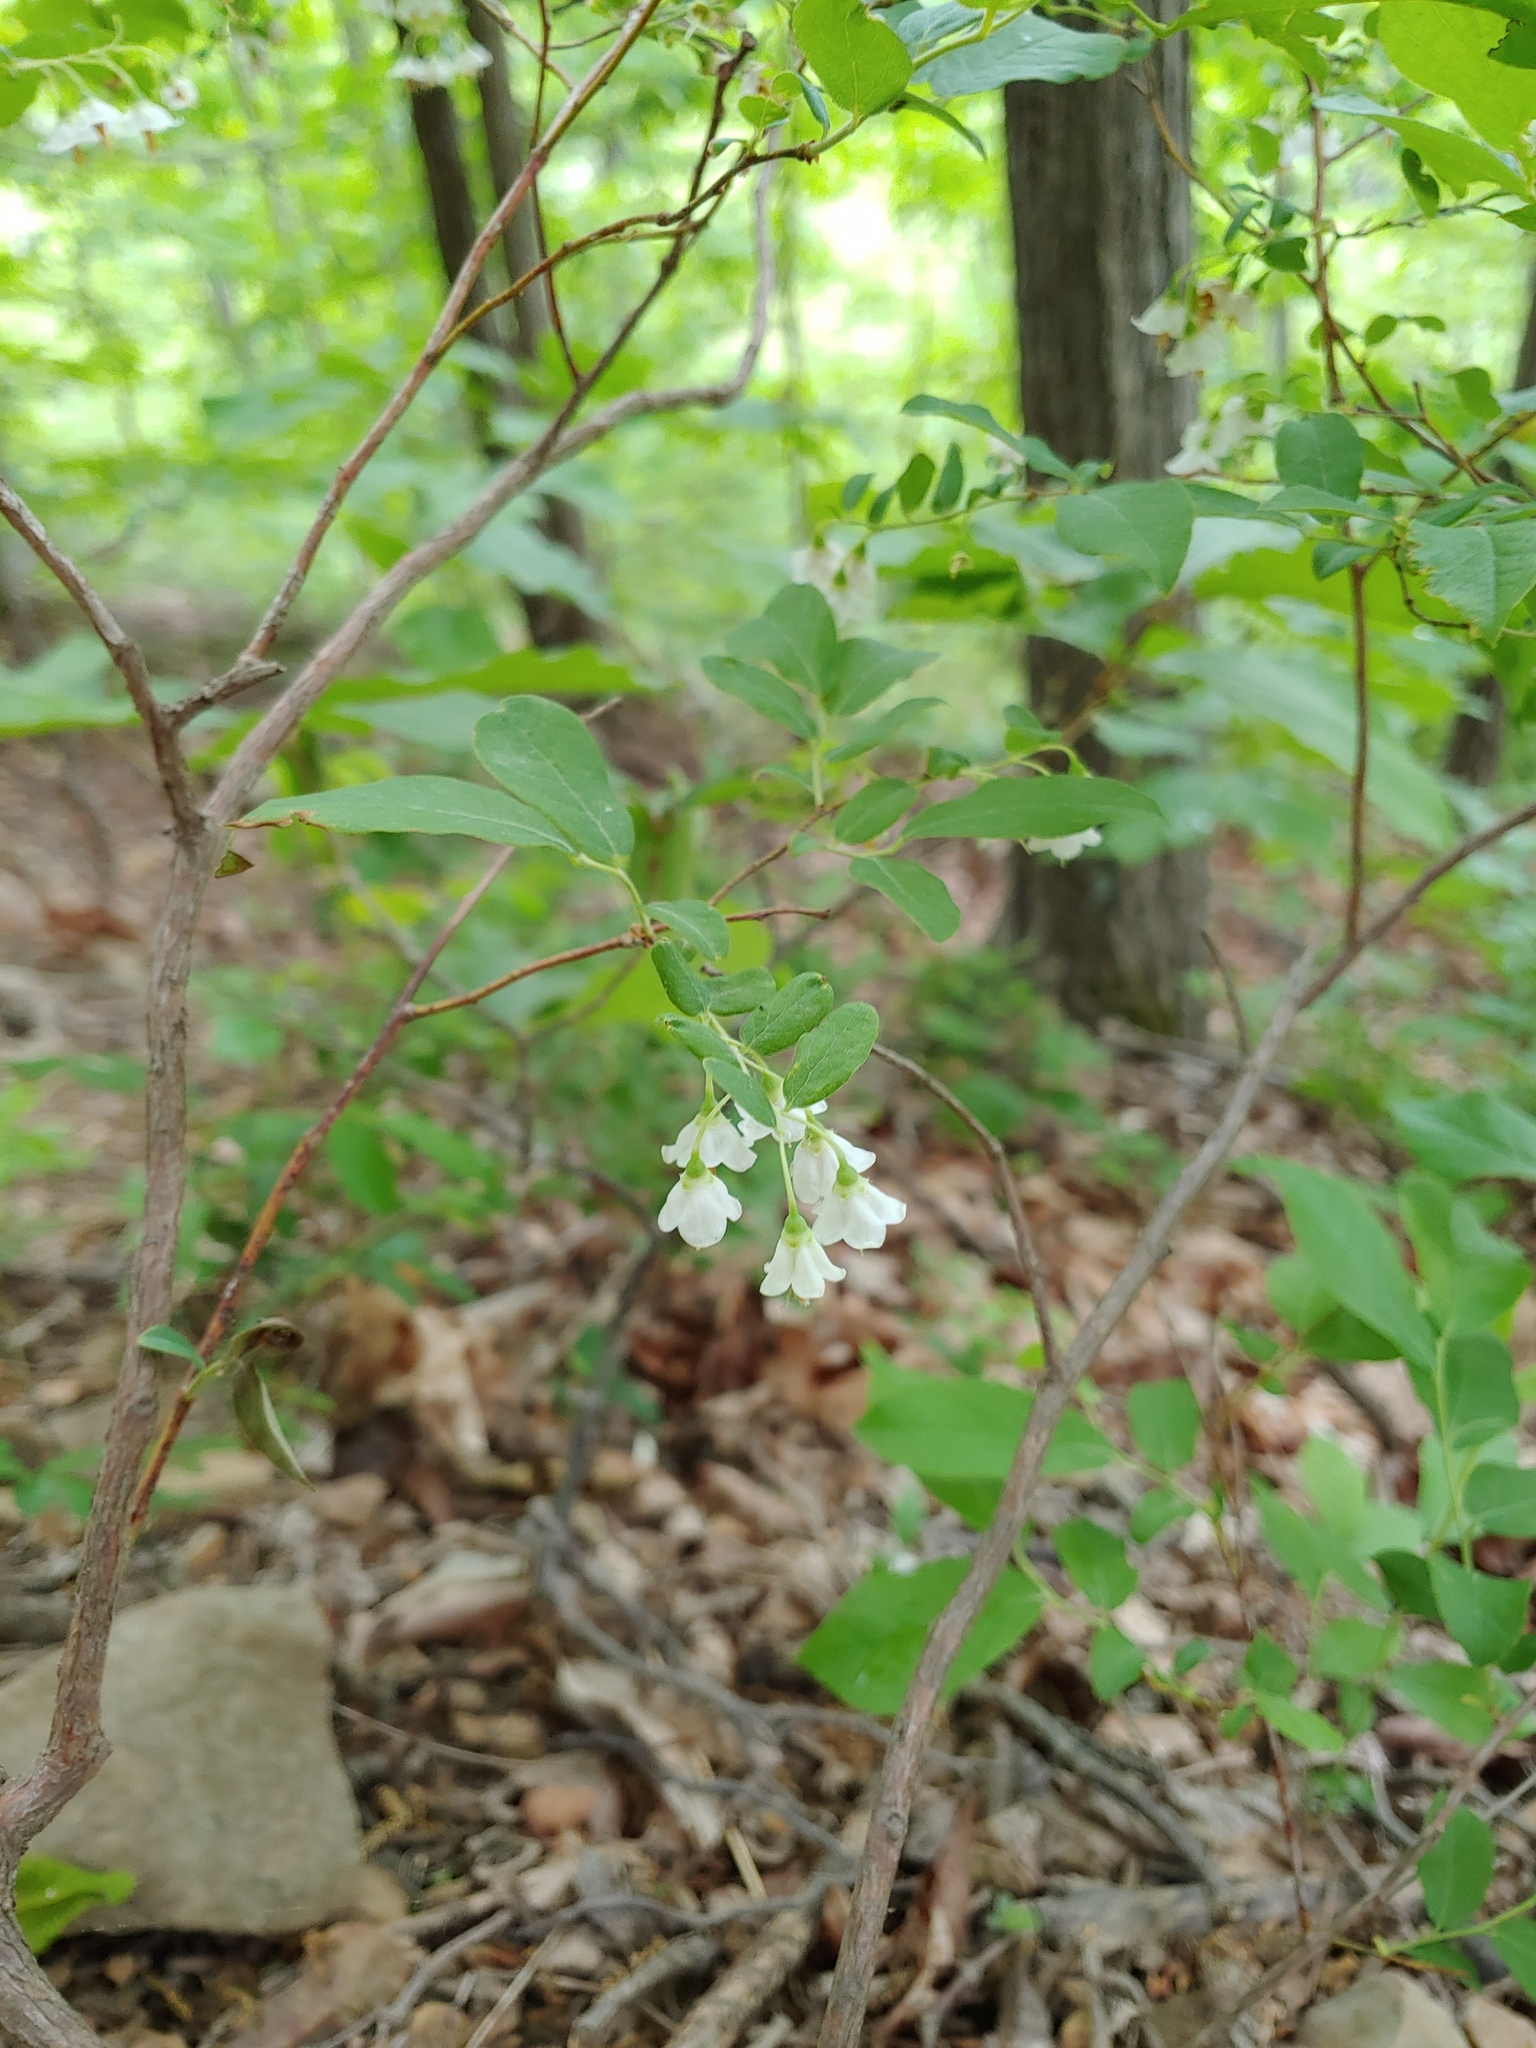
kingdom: Plantae
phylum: Tracheophyta
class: Magnoliopsida
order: Ericales
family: Ericaceae
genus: Vaccinium
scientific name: Vaccinium stamineum
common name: Deerberry
